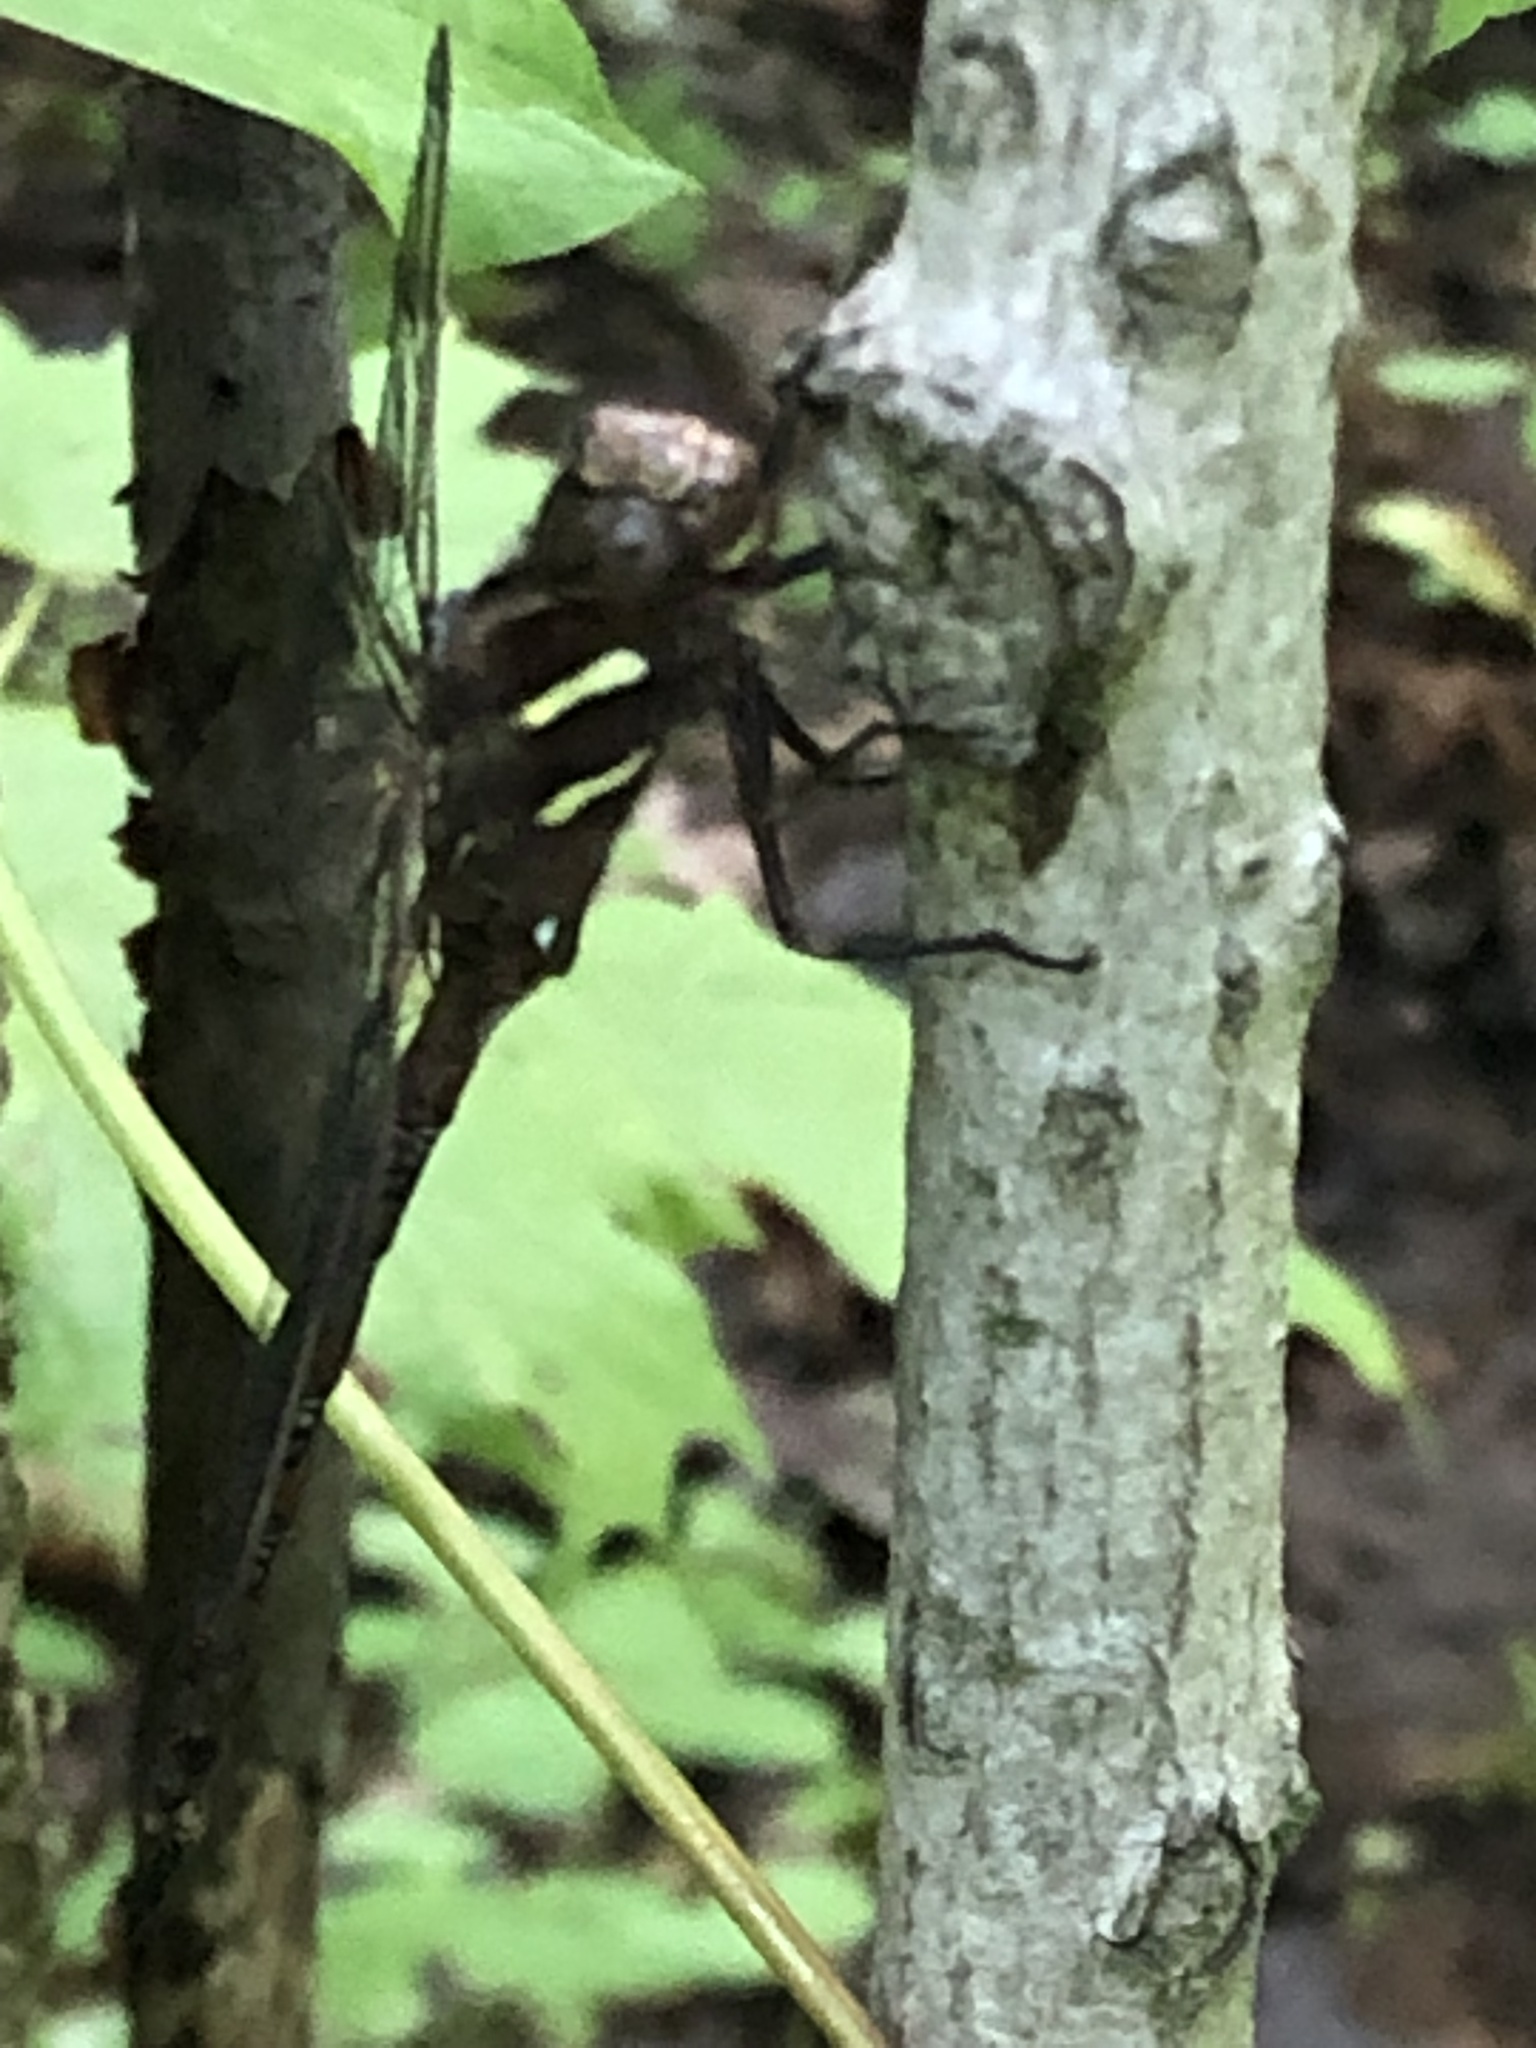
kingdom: Animalia
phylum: Arthropoda
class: Insecta
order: Odonata
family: Aeshnidae
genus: Basiaeschna
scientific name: Basiaeschna janata
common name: Springtime darner
